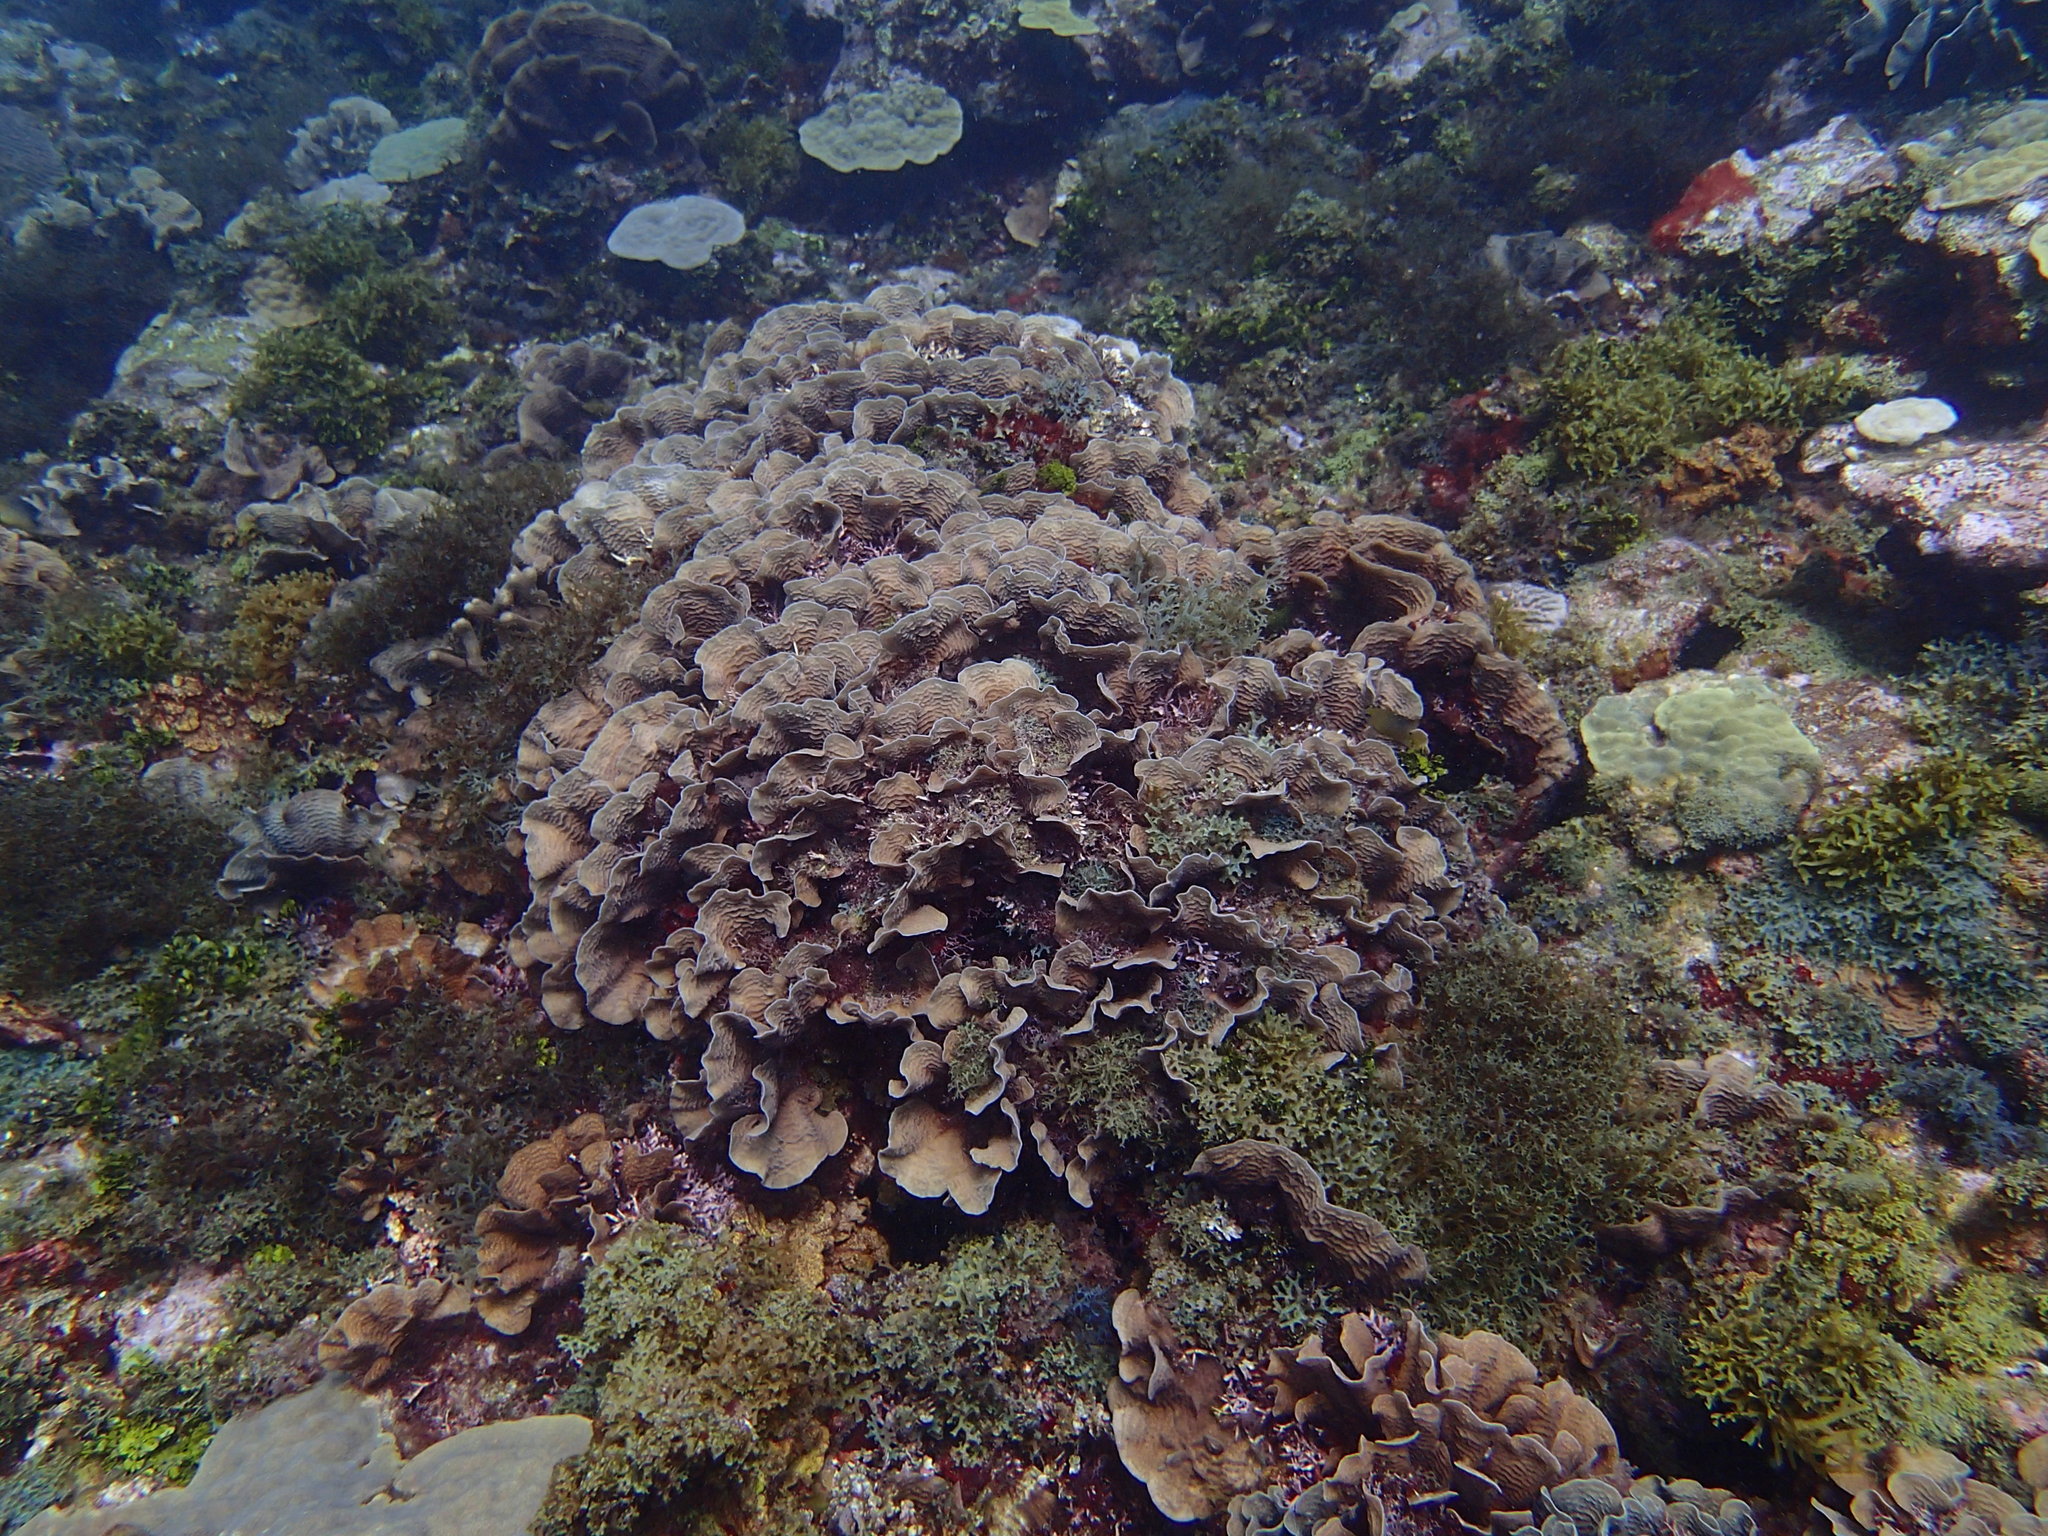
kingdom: Animalia
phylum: Cnidaria
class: Anthozoa
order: Scleractinia
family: Agariciidae
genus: Agaricia
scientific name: Agaricia tenuifolia
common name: Thin leaf lettuce coral
